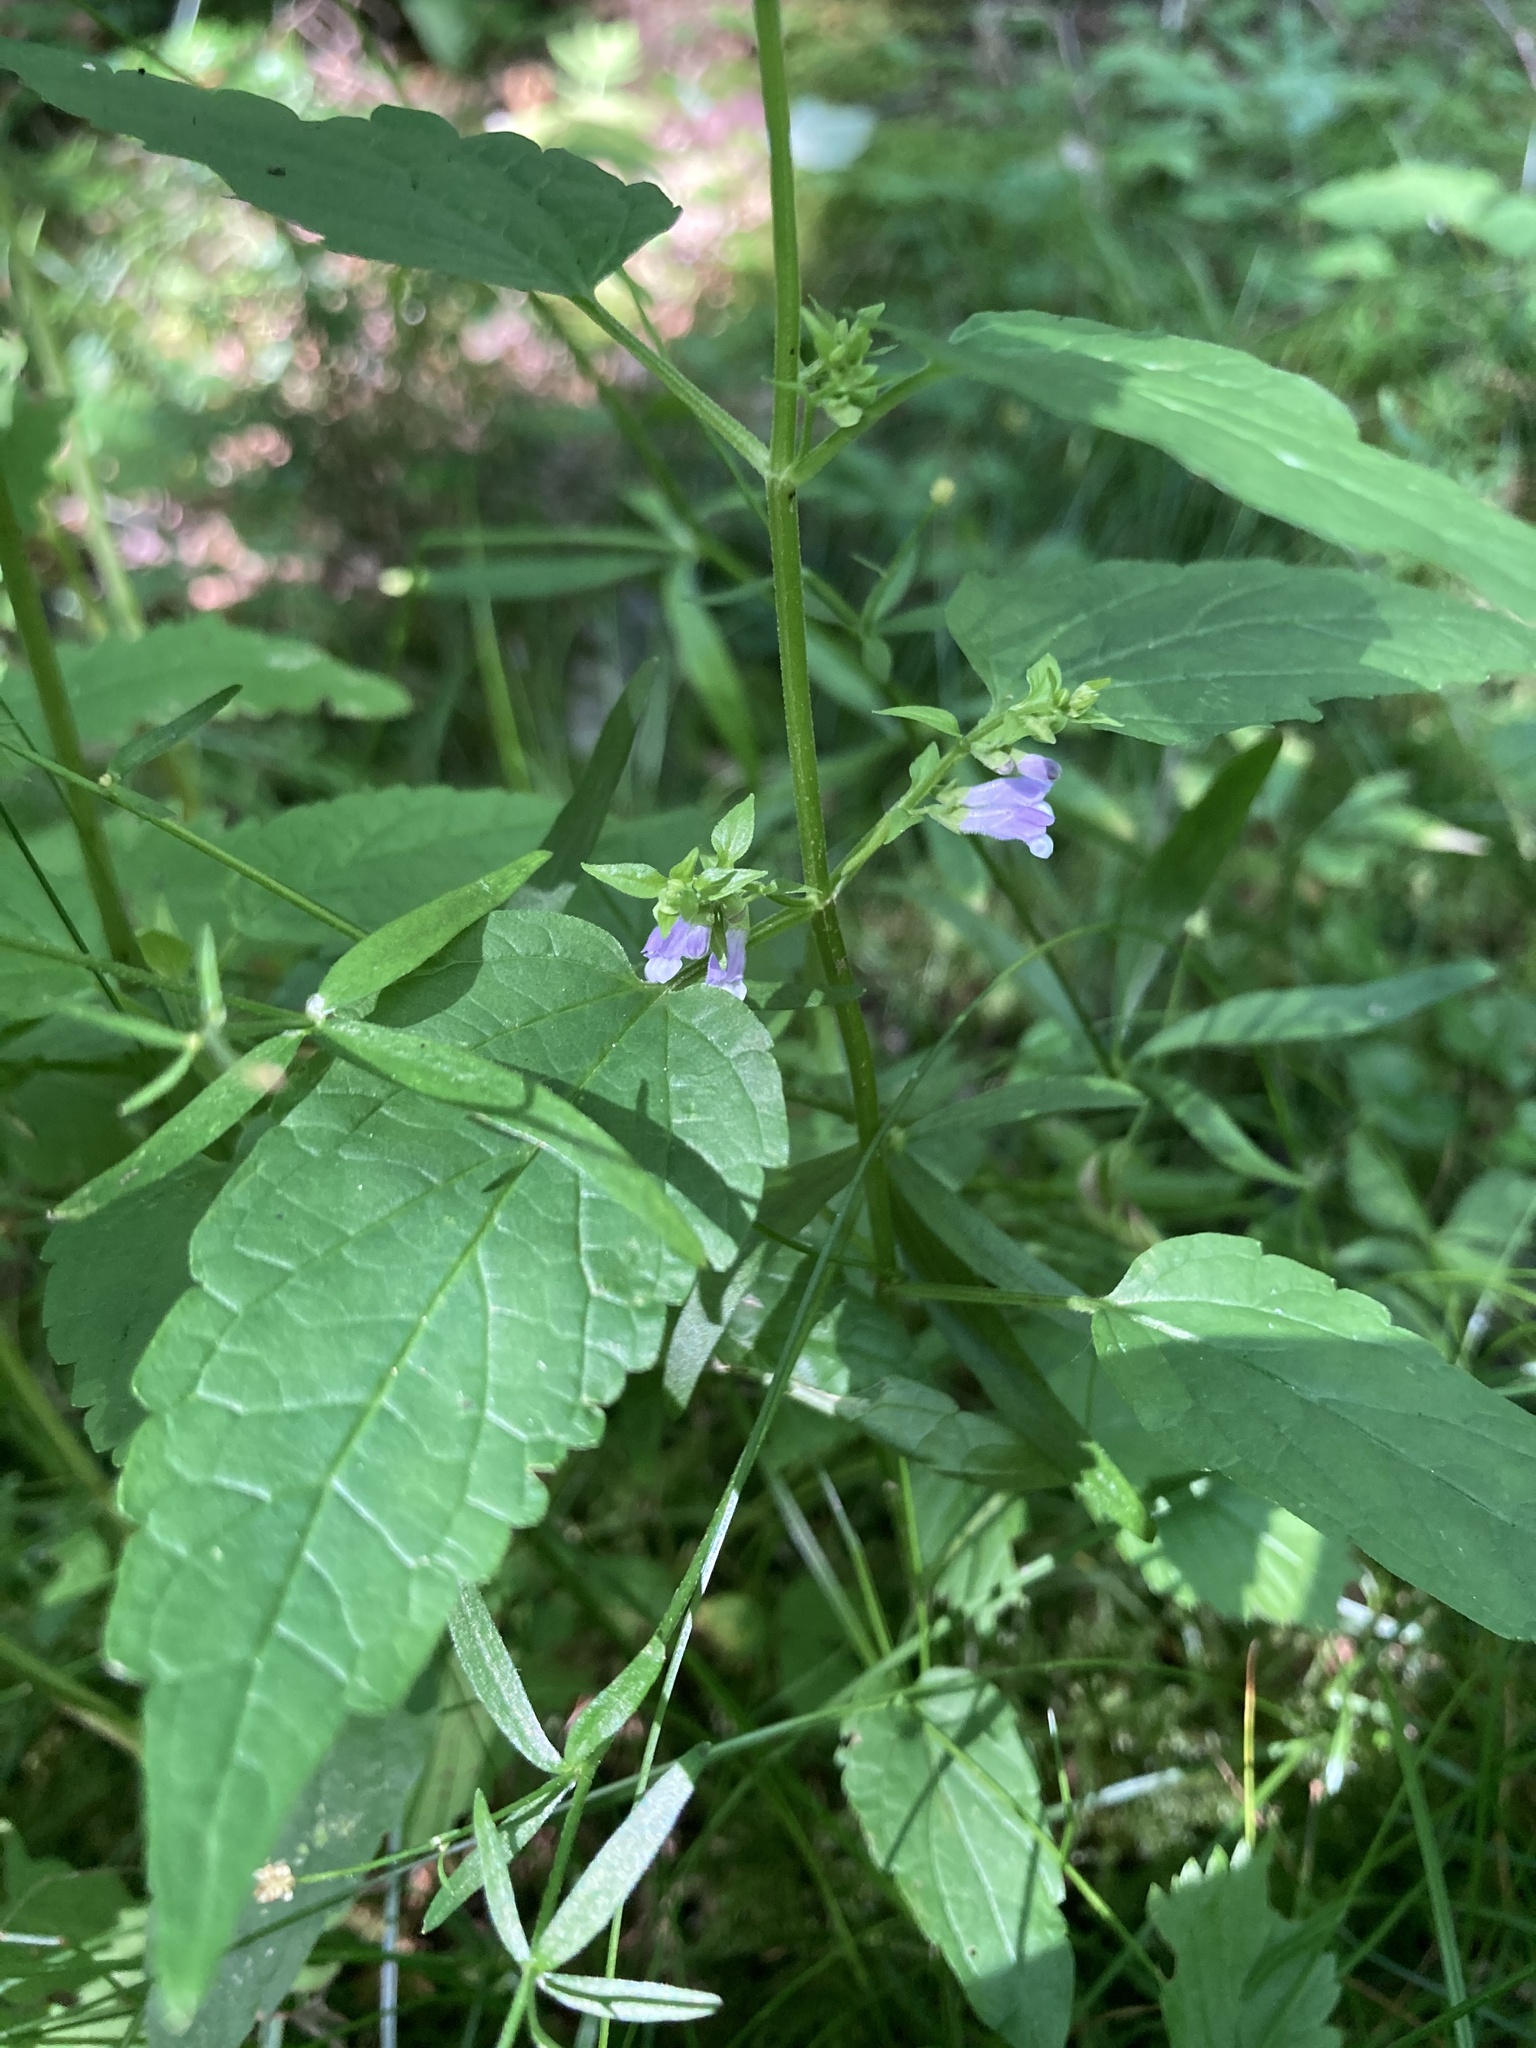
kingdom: Plantae
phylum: Tracheophyta
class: Magnoliopsida
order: Lamiales
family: Lamiaceae
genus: Scutellaria
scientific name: Scutellaria lateriflora
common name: Blue skullcap
